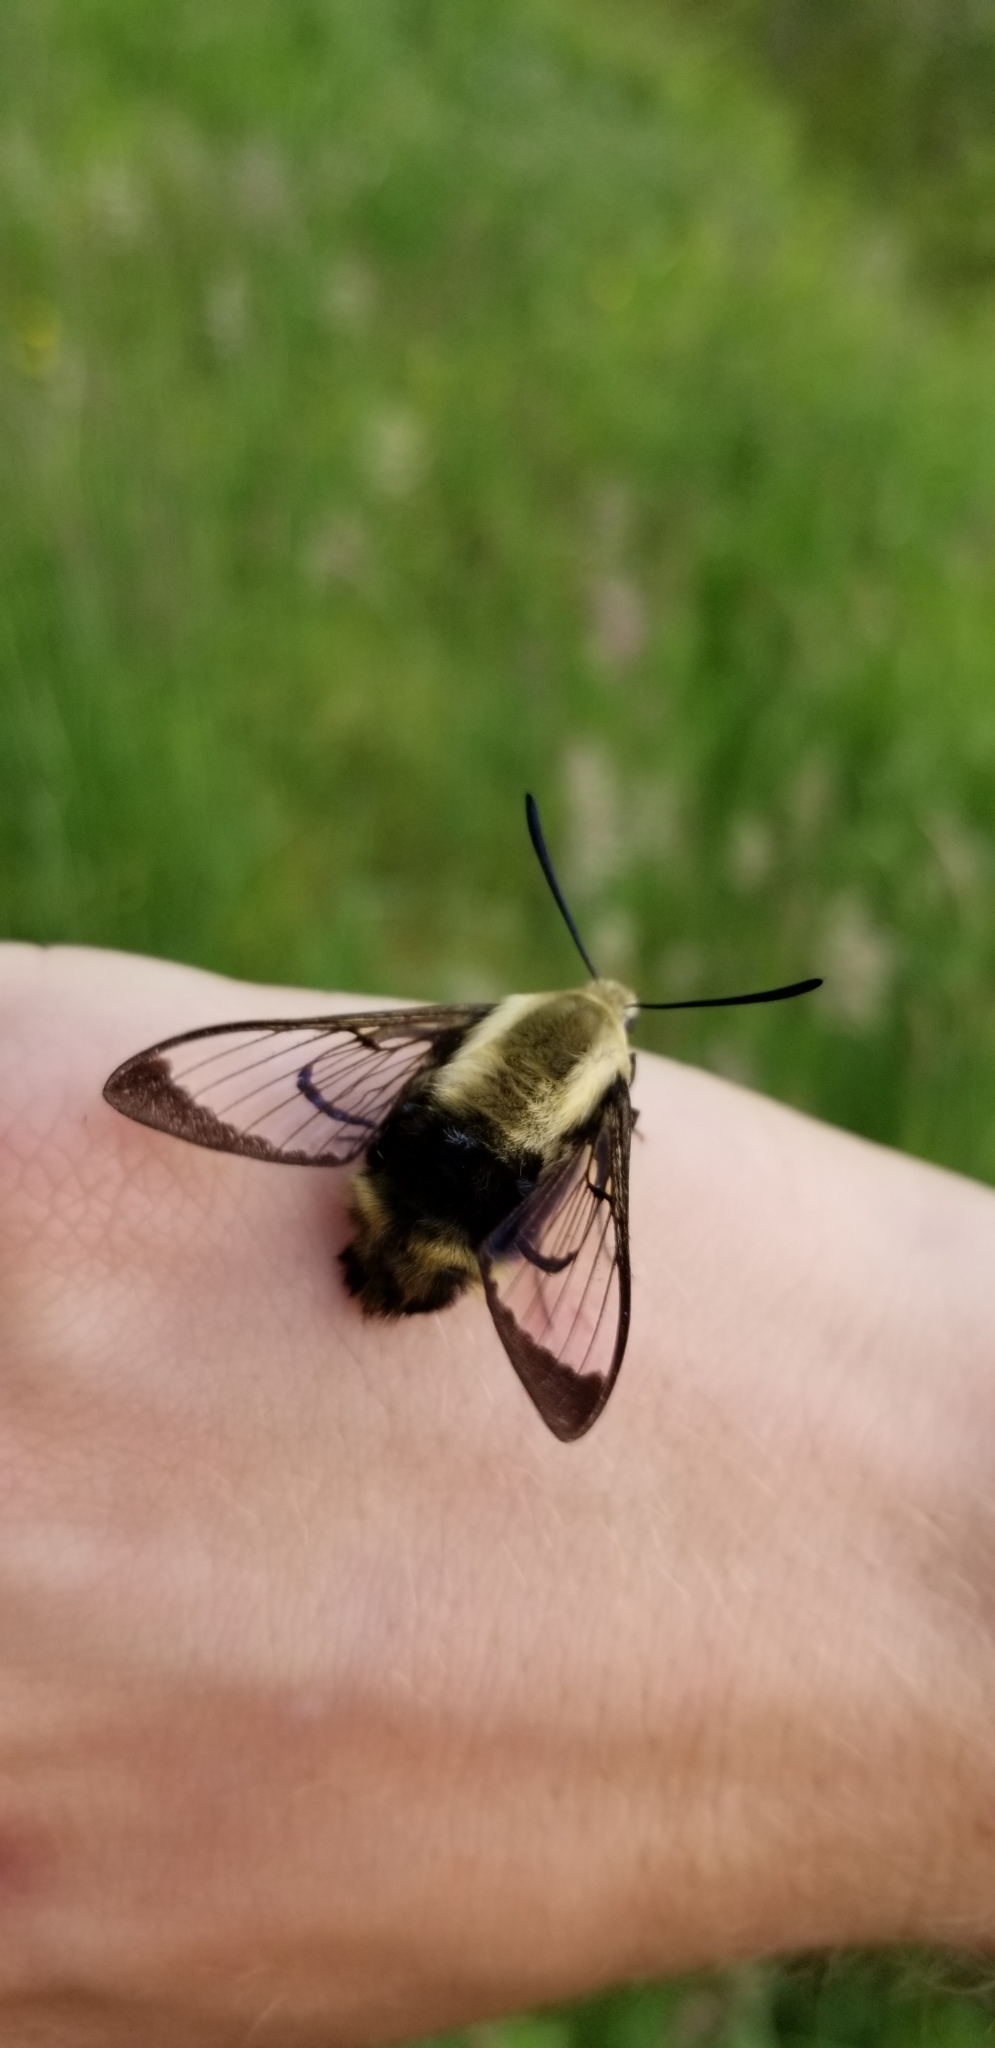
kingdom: Animalia
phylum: Arthropoda
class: Insecta
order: Lepidoptera
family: Sphingidae
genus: Hemaris
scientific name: Hemaris diffinis
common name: Bumblebee moth
